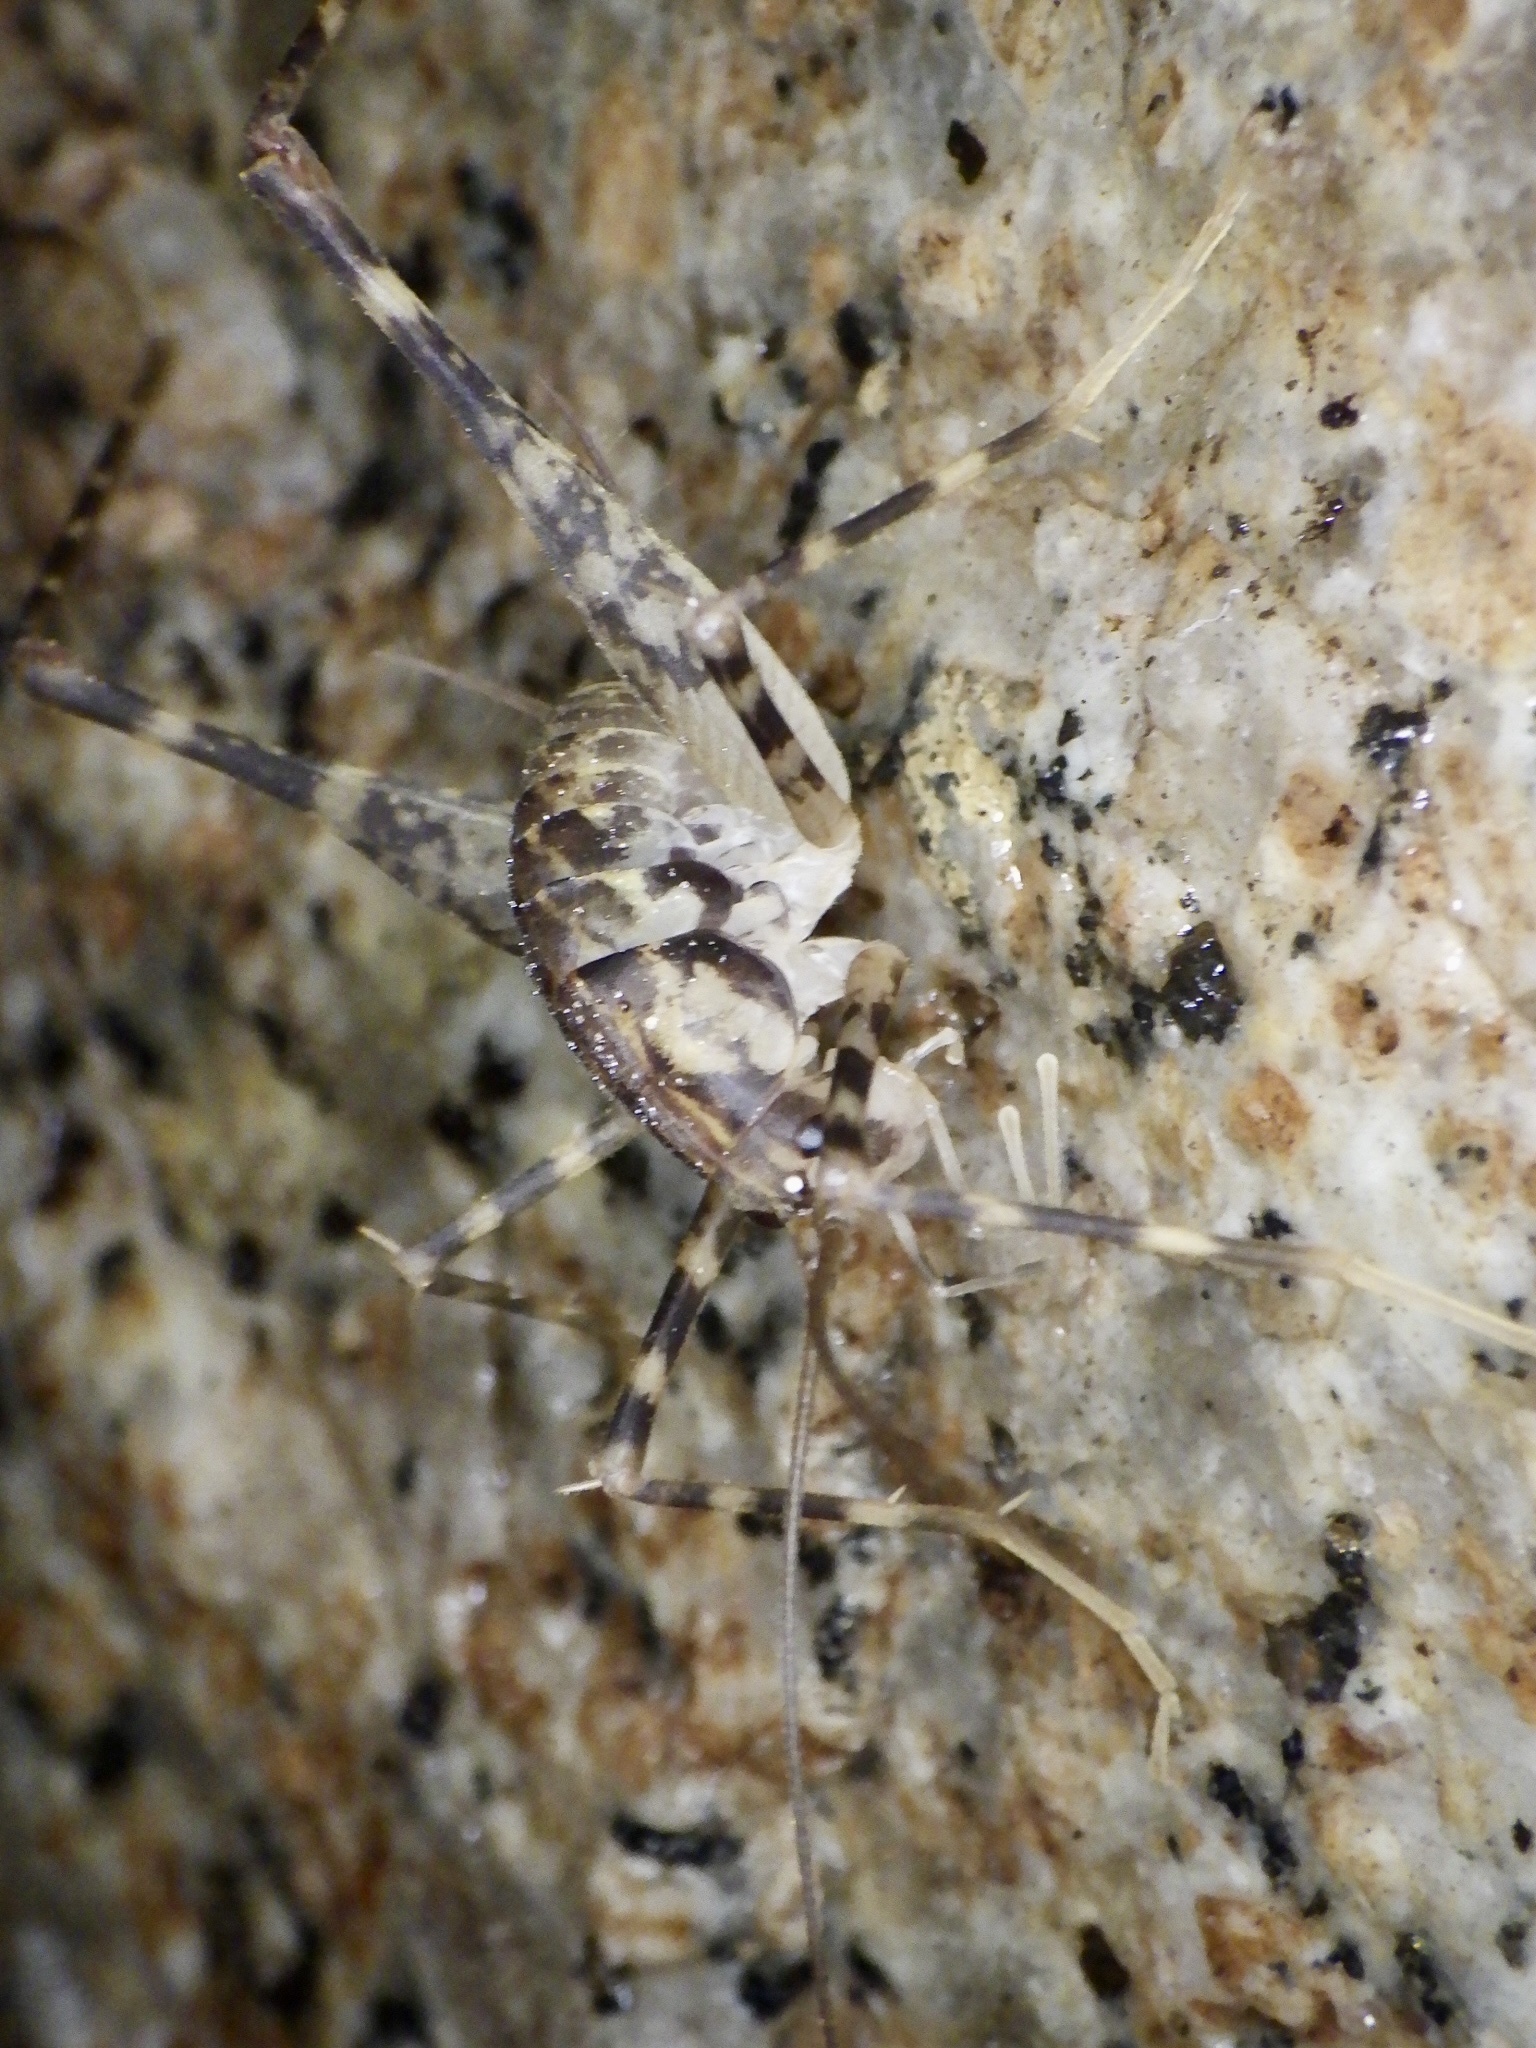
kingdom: Animalia
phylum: Arthropoda
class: Insecta
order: Orthoptera
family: Rhaphidophoridae
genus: Diestrammena
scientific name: Diestrammena japanica
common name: Japanese camel cricket
